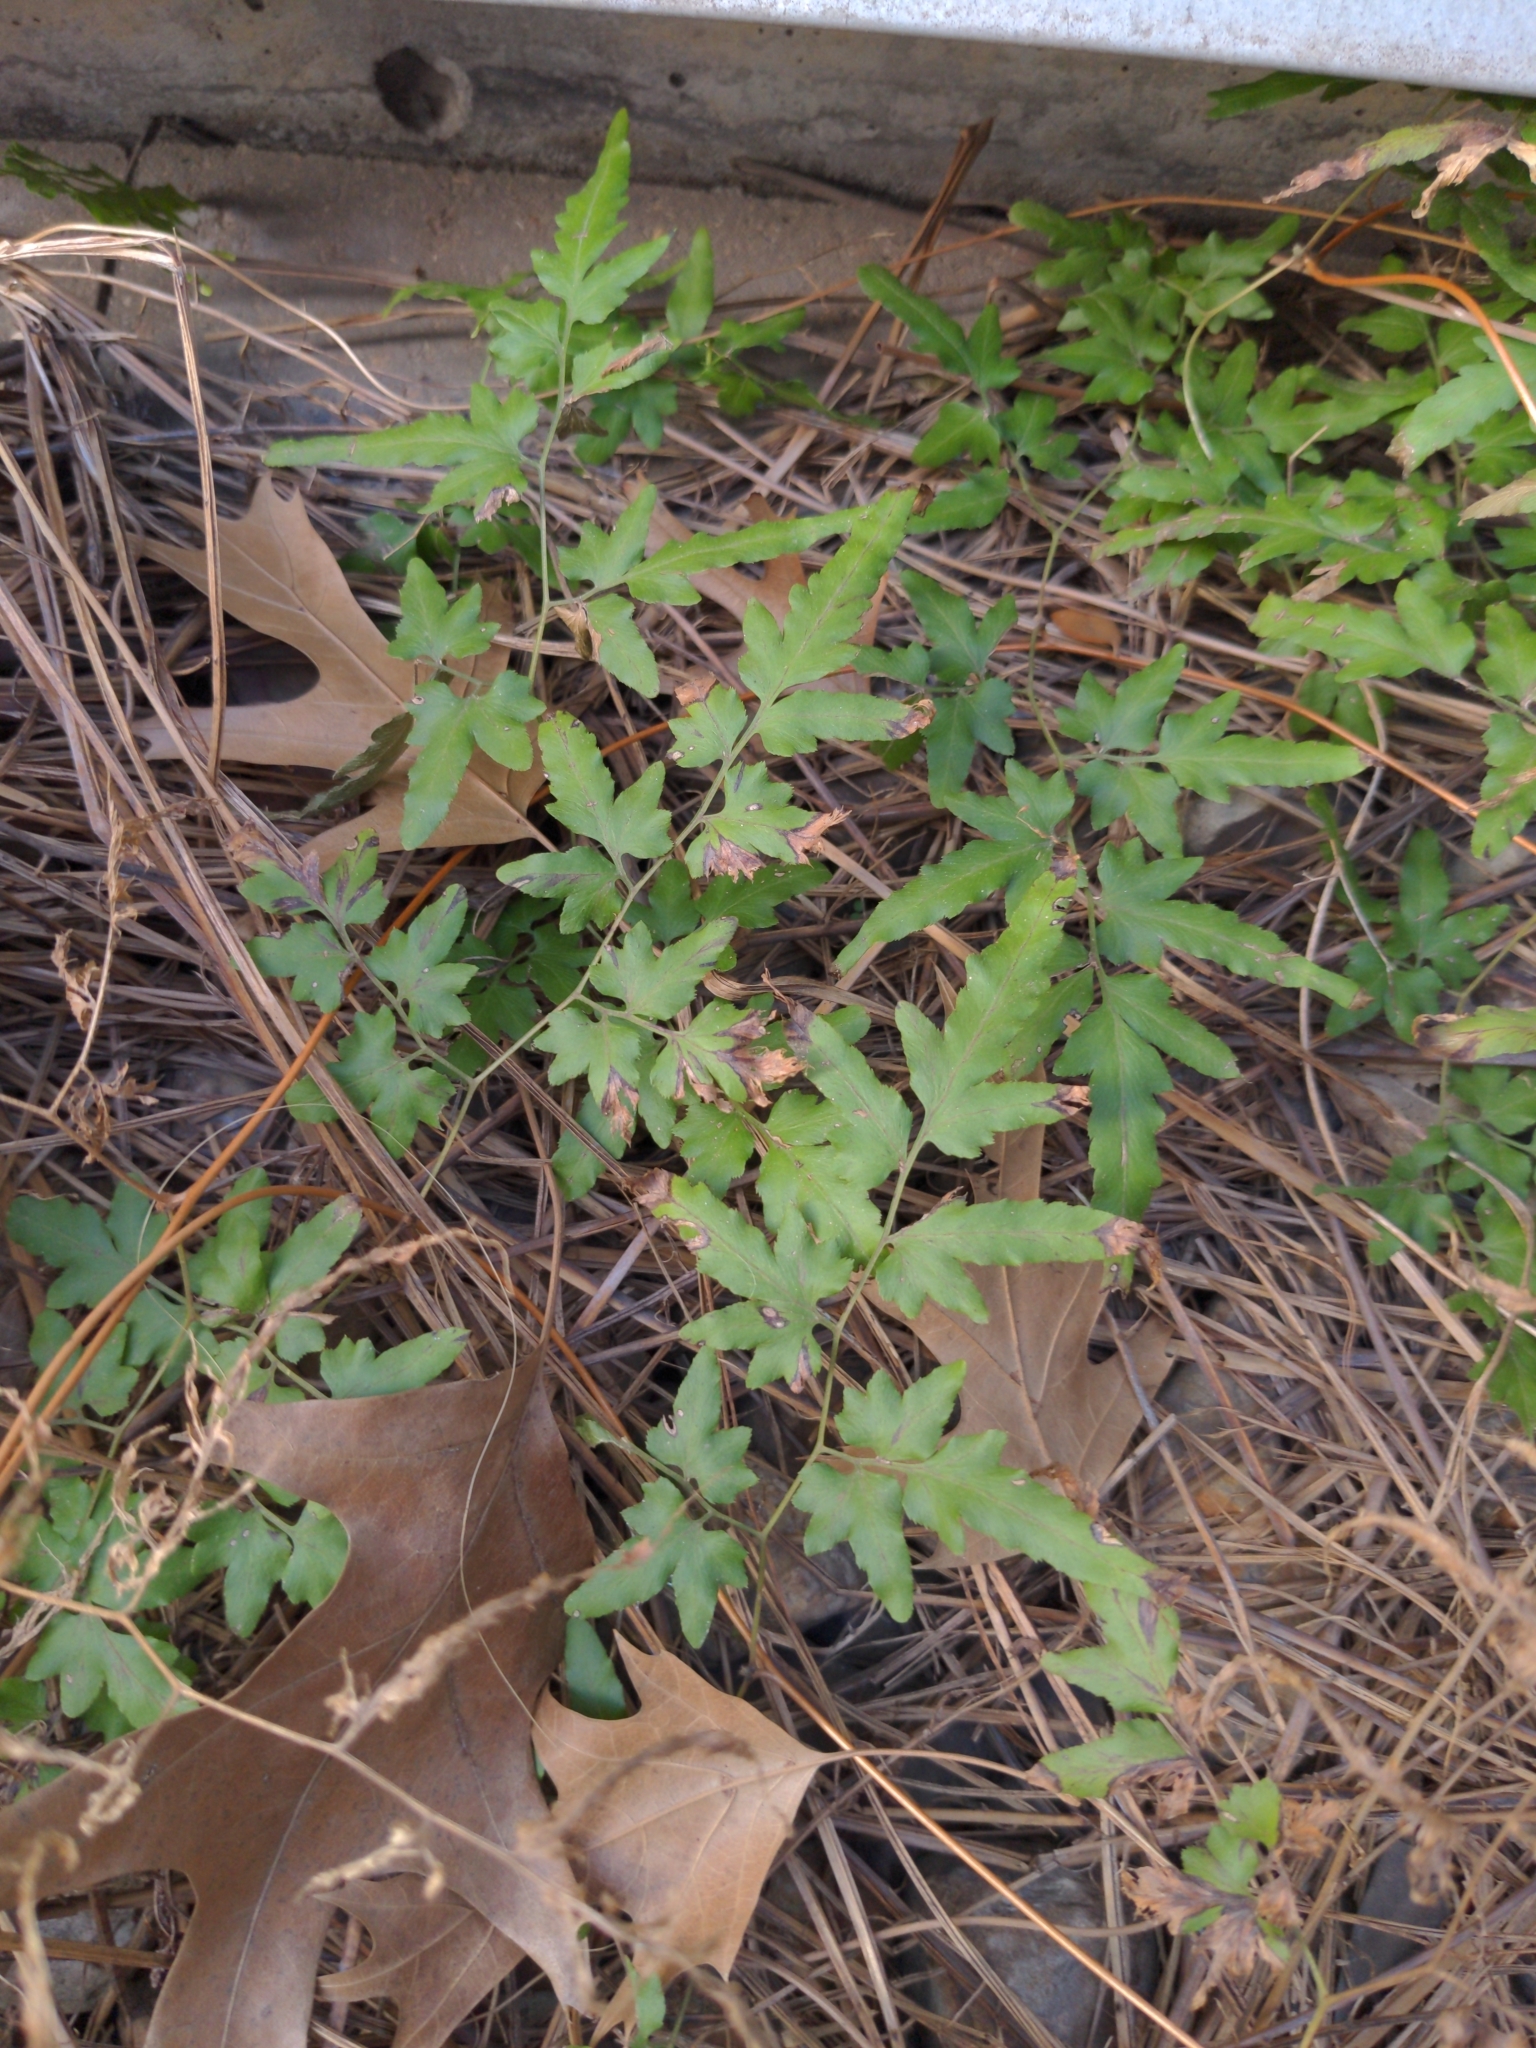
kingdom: Plantae
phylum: Tracheophyta
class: Polypodiopsida
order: Schizaeales
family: Lygodiaceae
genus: Lygodium
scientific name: Lygodium japonicum
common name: Japanese climbing fern
